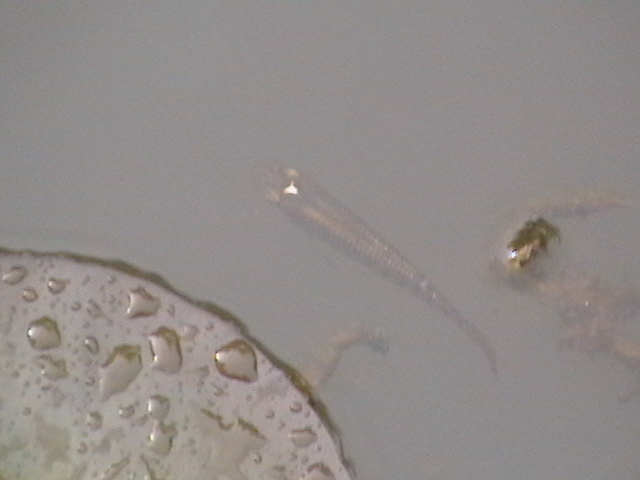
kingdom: Animalia
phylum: Chordata
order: Cyprinodontiformes
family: Aplocheilidae
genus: Aplocheilus
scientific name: Aplocheilus lineatus
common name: Striped panchax
